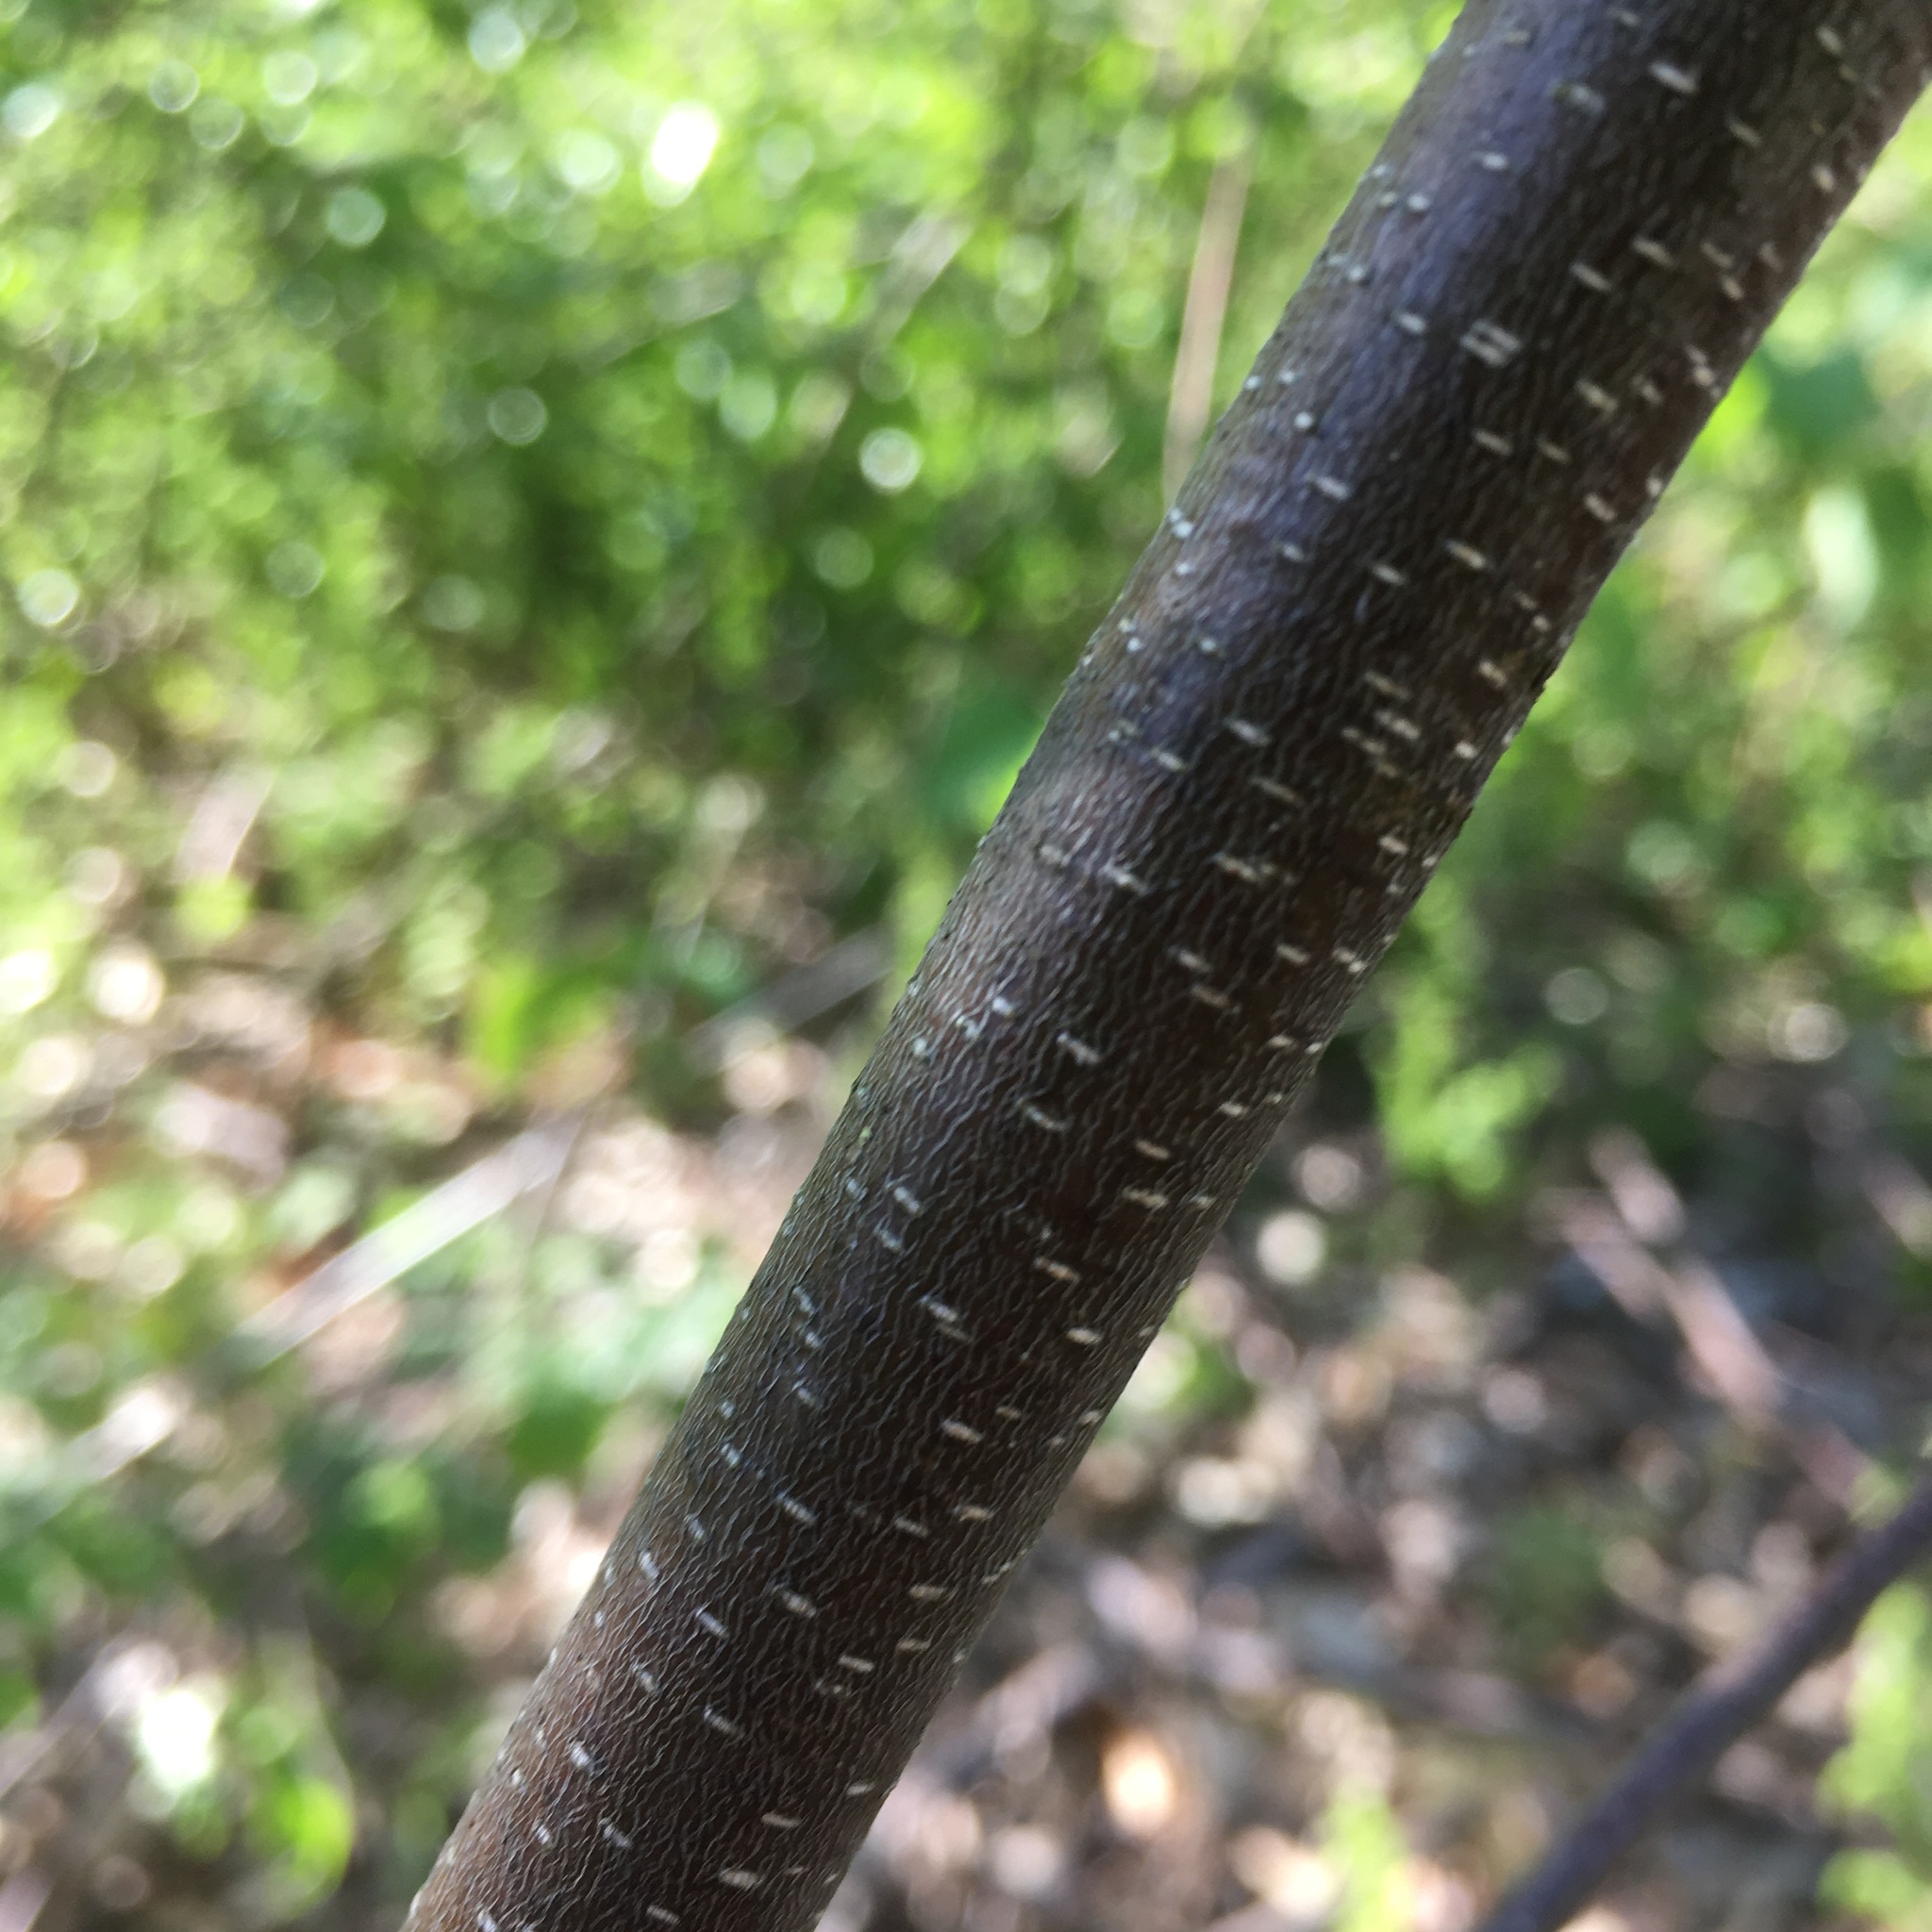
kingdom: Plantae
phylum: Tracheophyta
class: Magnoliopsida
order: Fagales
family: Betulaceae
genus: Betula
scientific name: Betula populifolia
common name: Fire birch
